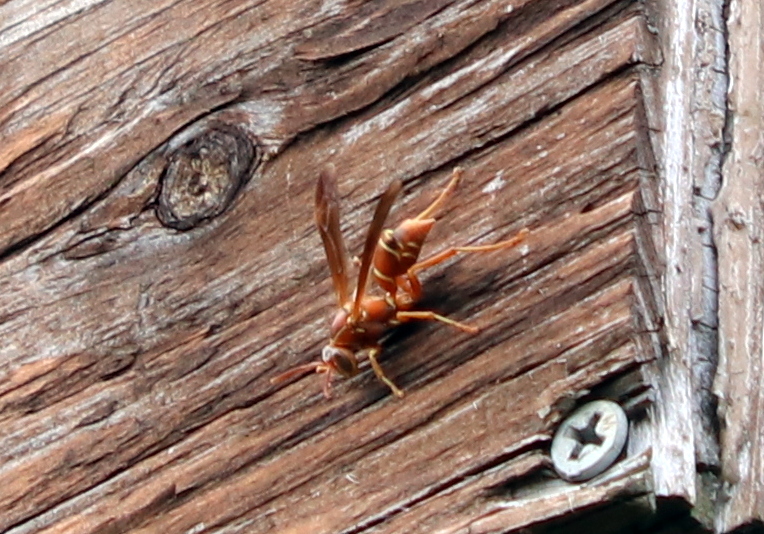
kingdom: Animalia
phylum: Arthropoda
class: Insecta
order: Hymenoptera
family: Eumenidae
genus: Polistes
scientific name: Polistes bellicosus
